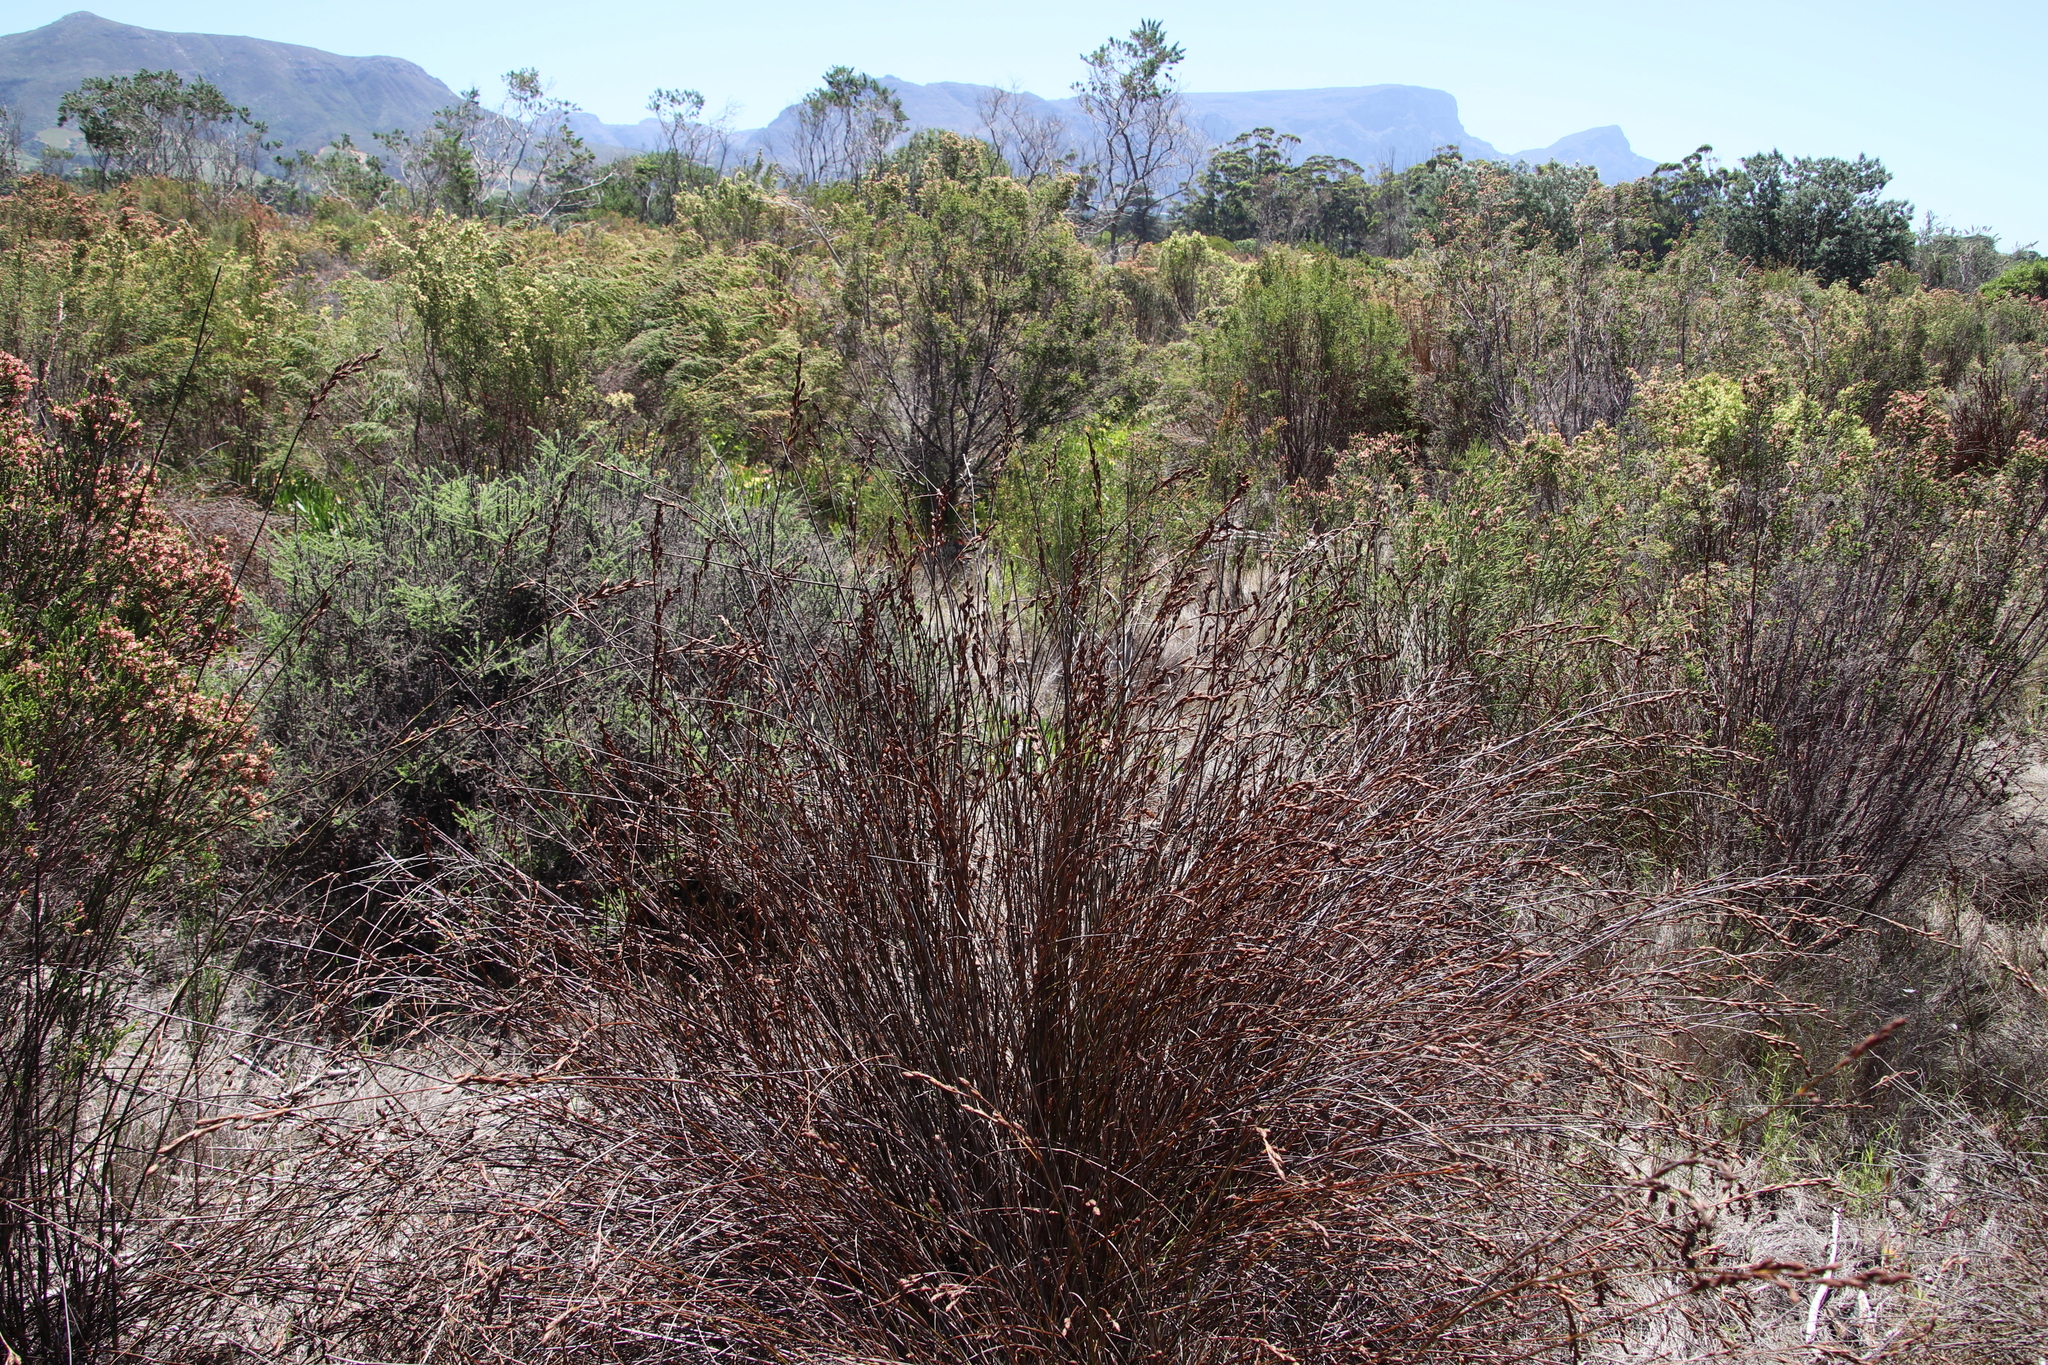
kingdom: Plantae
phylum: Tracheophyta
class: Liliopsida
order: Poales
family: Restionaceae
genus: Restio
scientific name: Restio bifurcus
